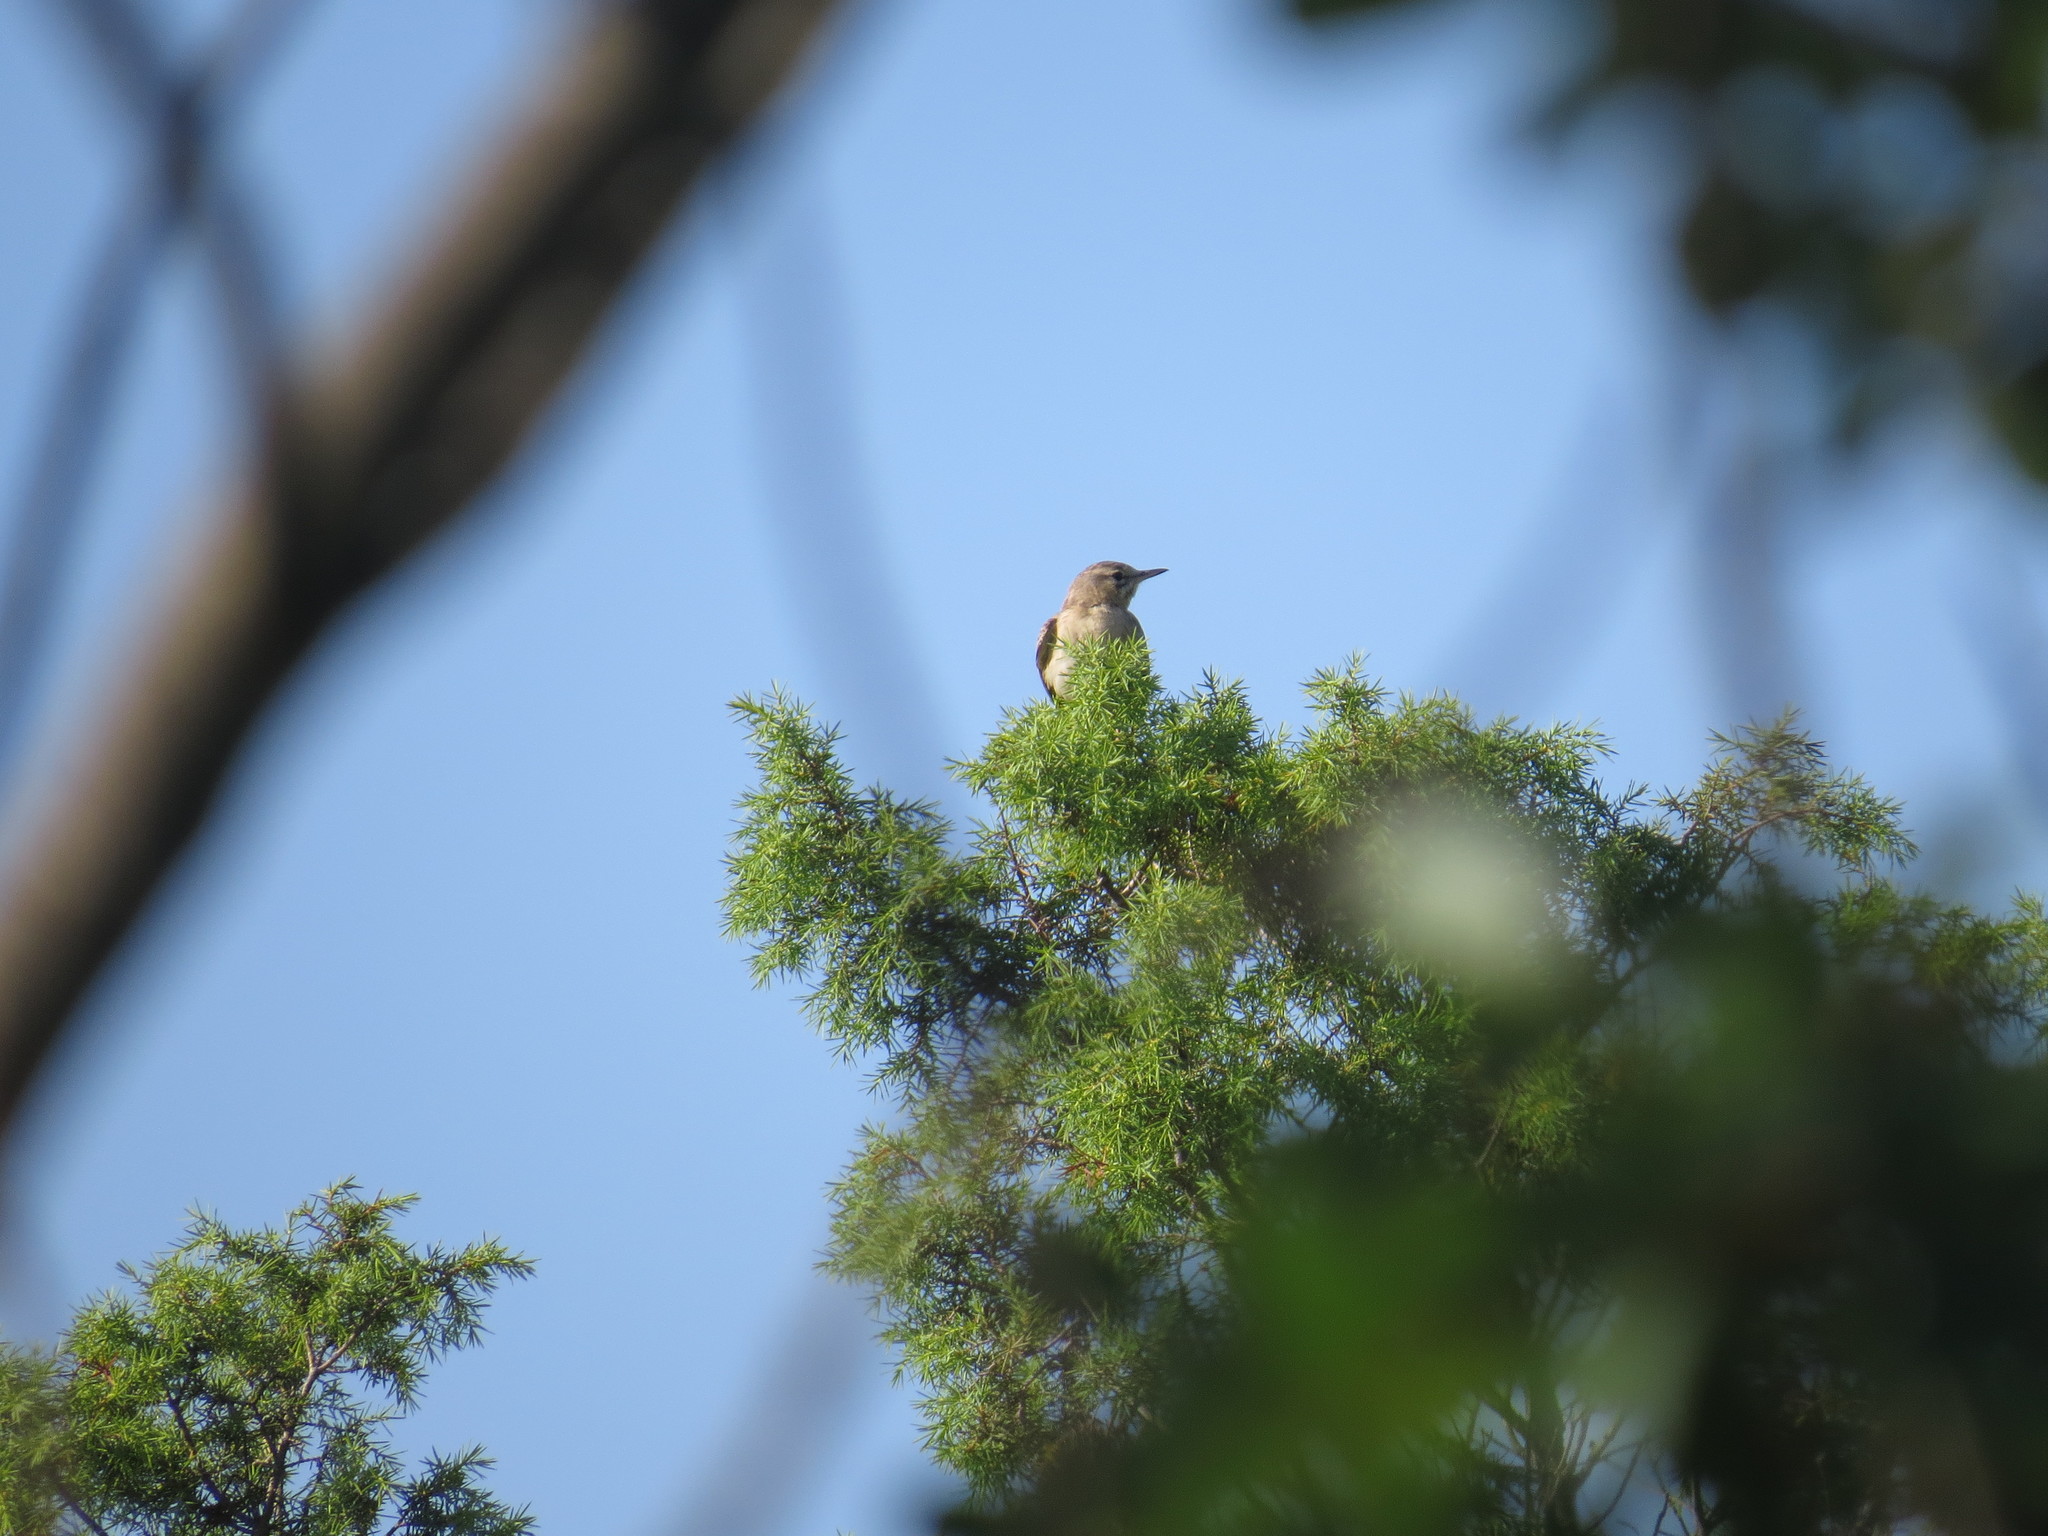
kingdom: Animalia
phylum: Chordata
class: Aves
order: Passeriformes
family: Motacillidae
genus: Anthus
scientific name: Anthus campestris
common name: Tawny pipit
